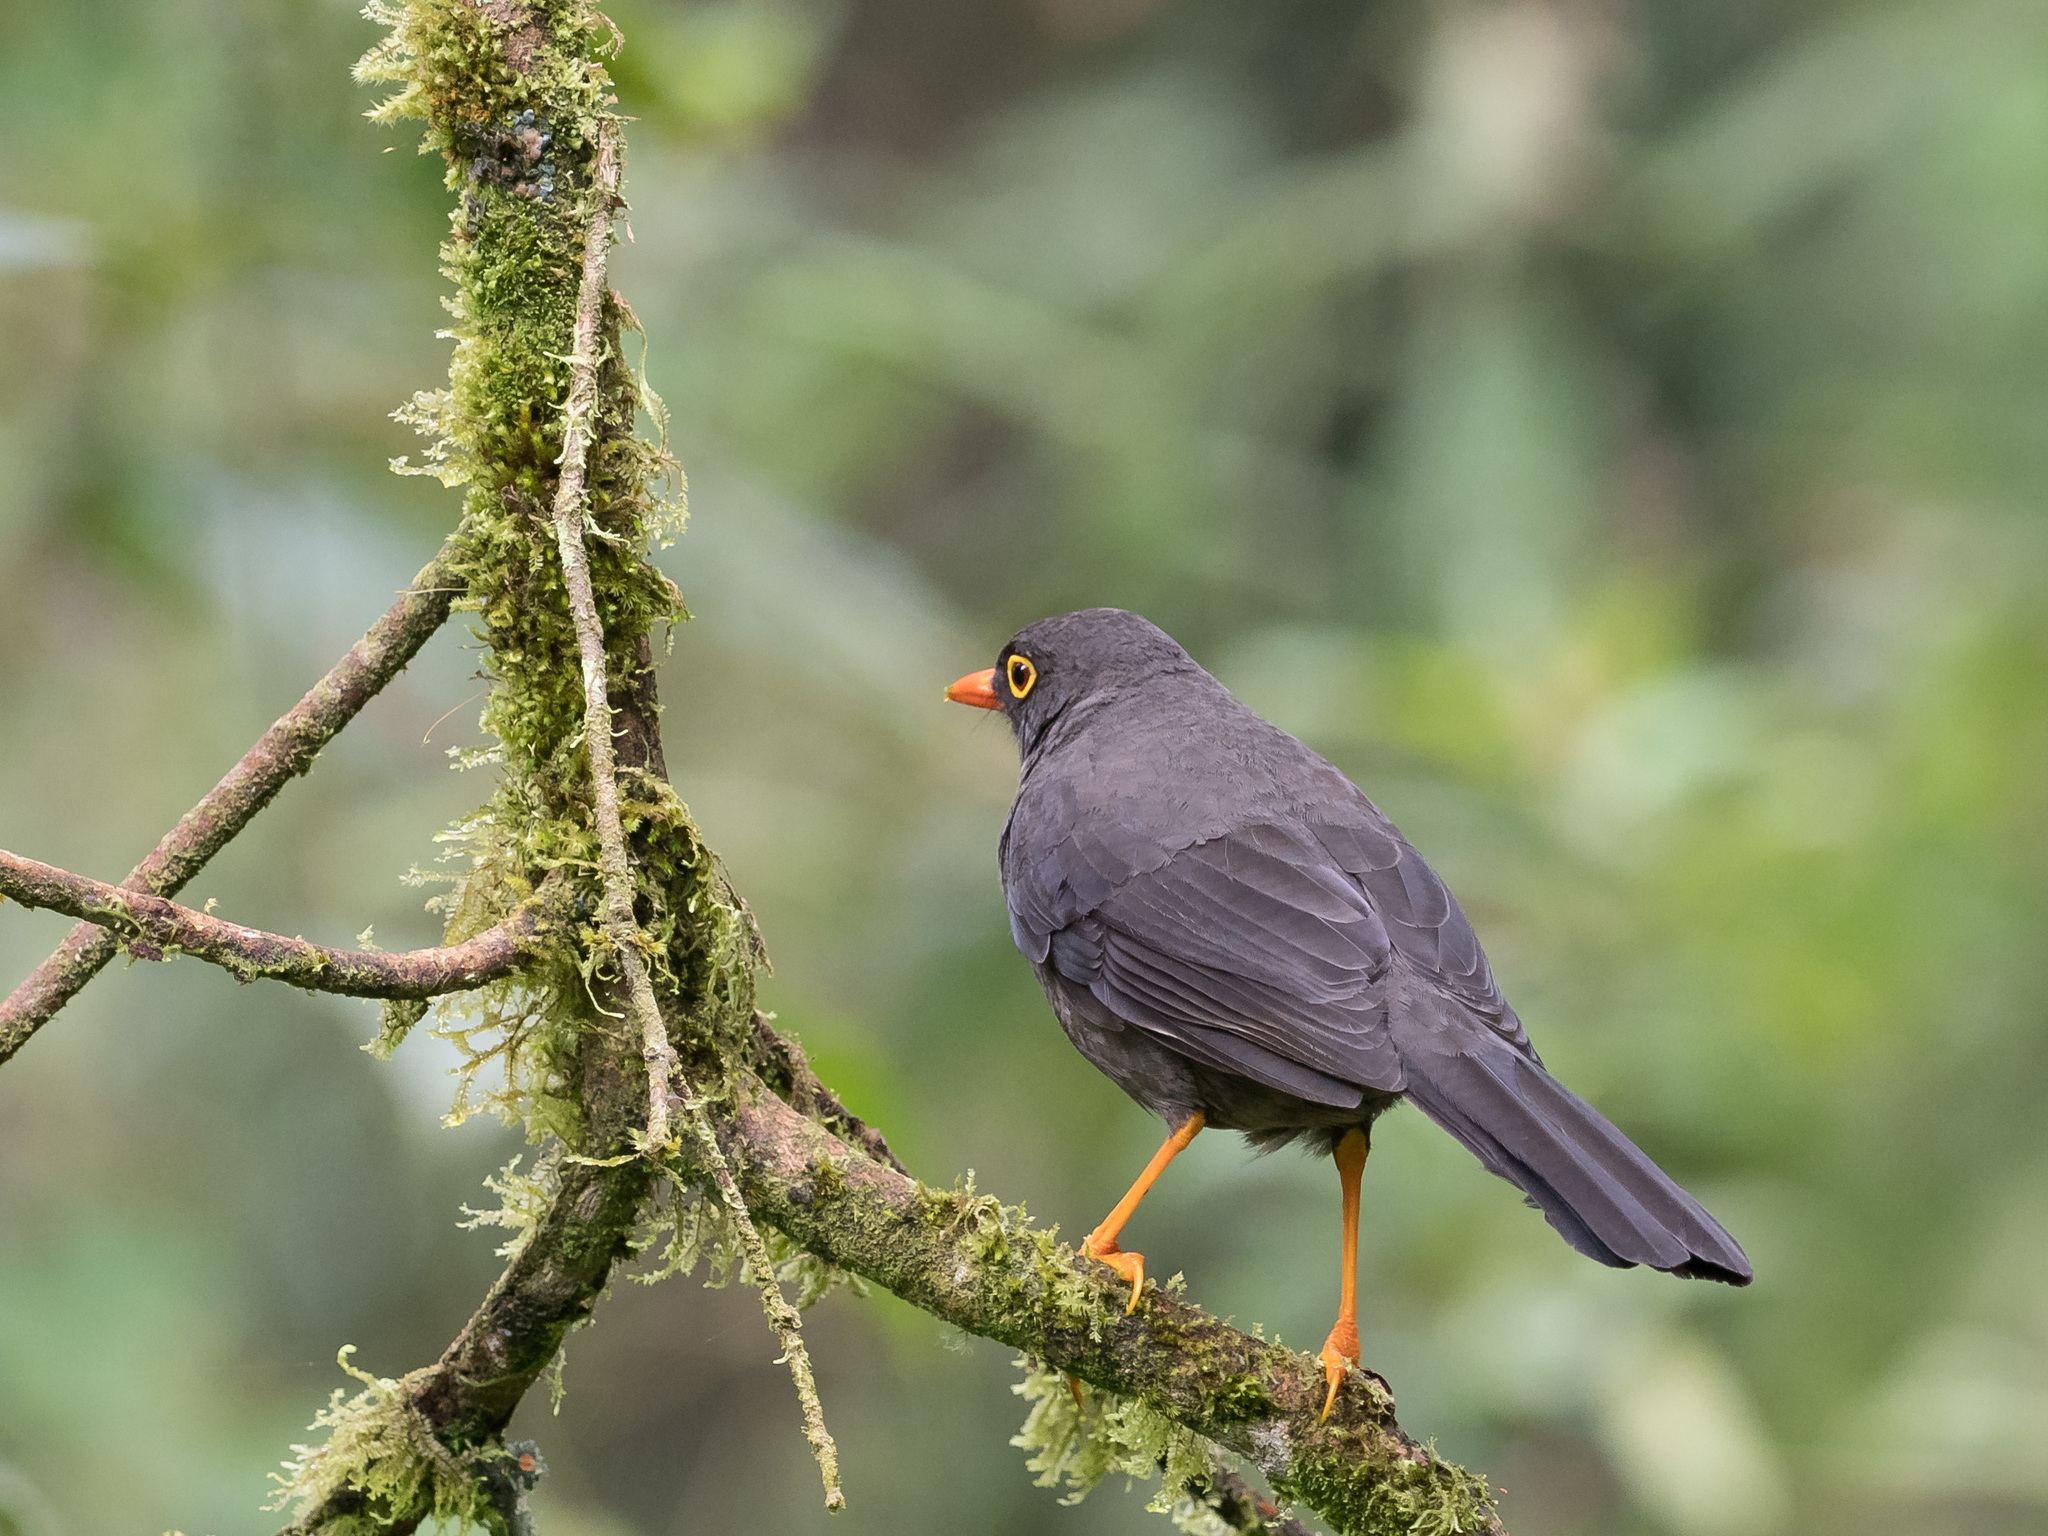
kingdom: Animalia
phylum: Chordata
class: Aves
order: Passeriformes
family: Turdidae
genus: Turdus
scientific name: Turdus fuscater
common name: Great thrush
